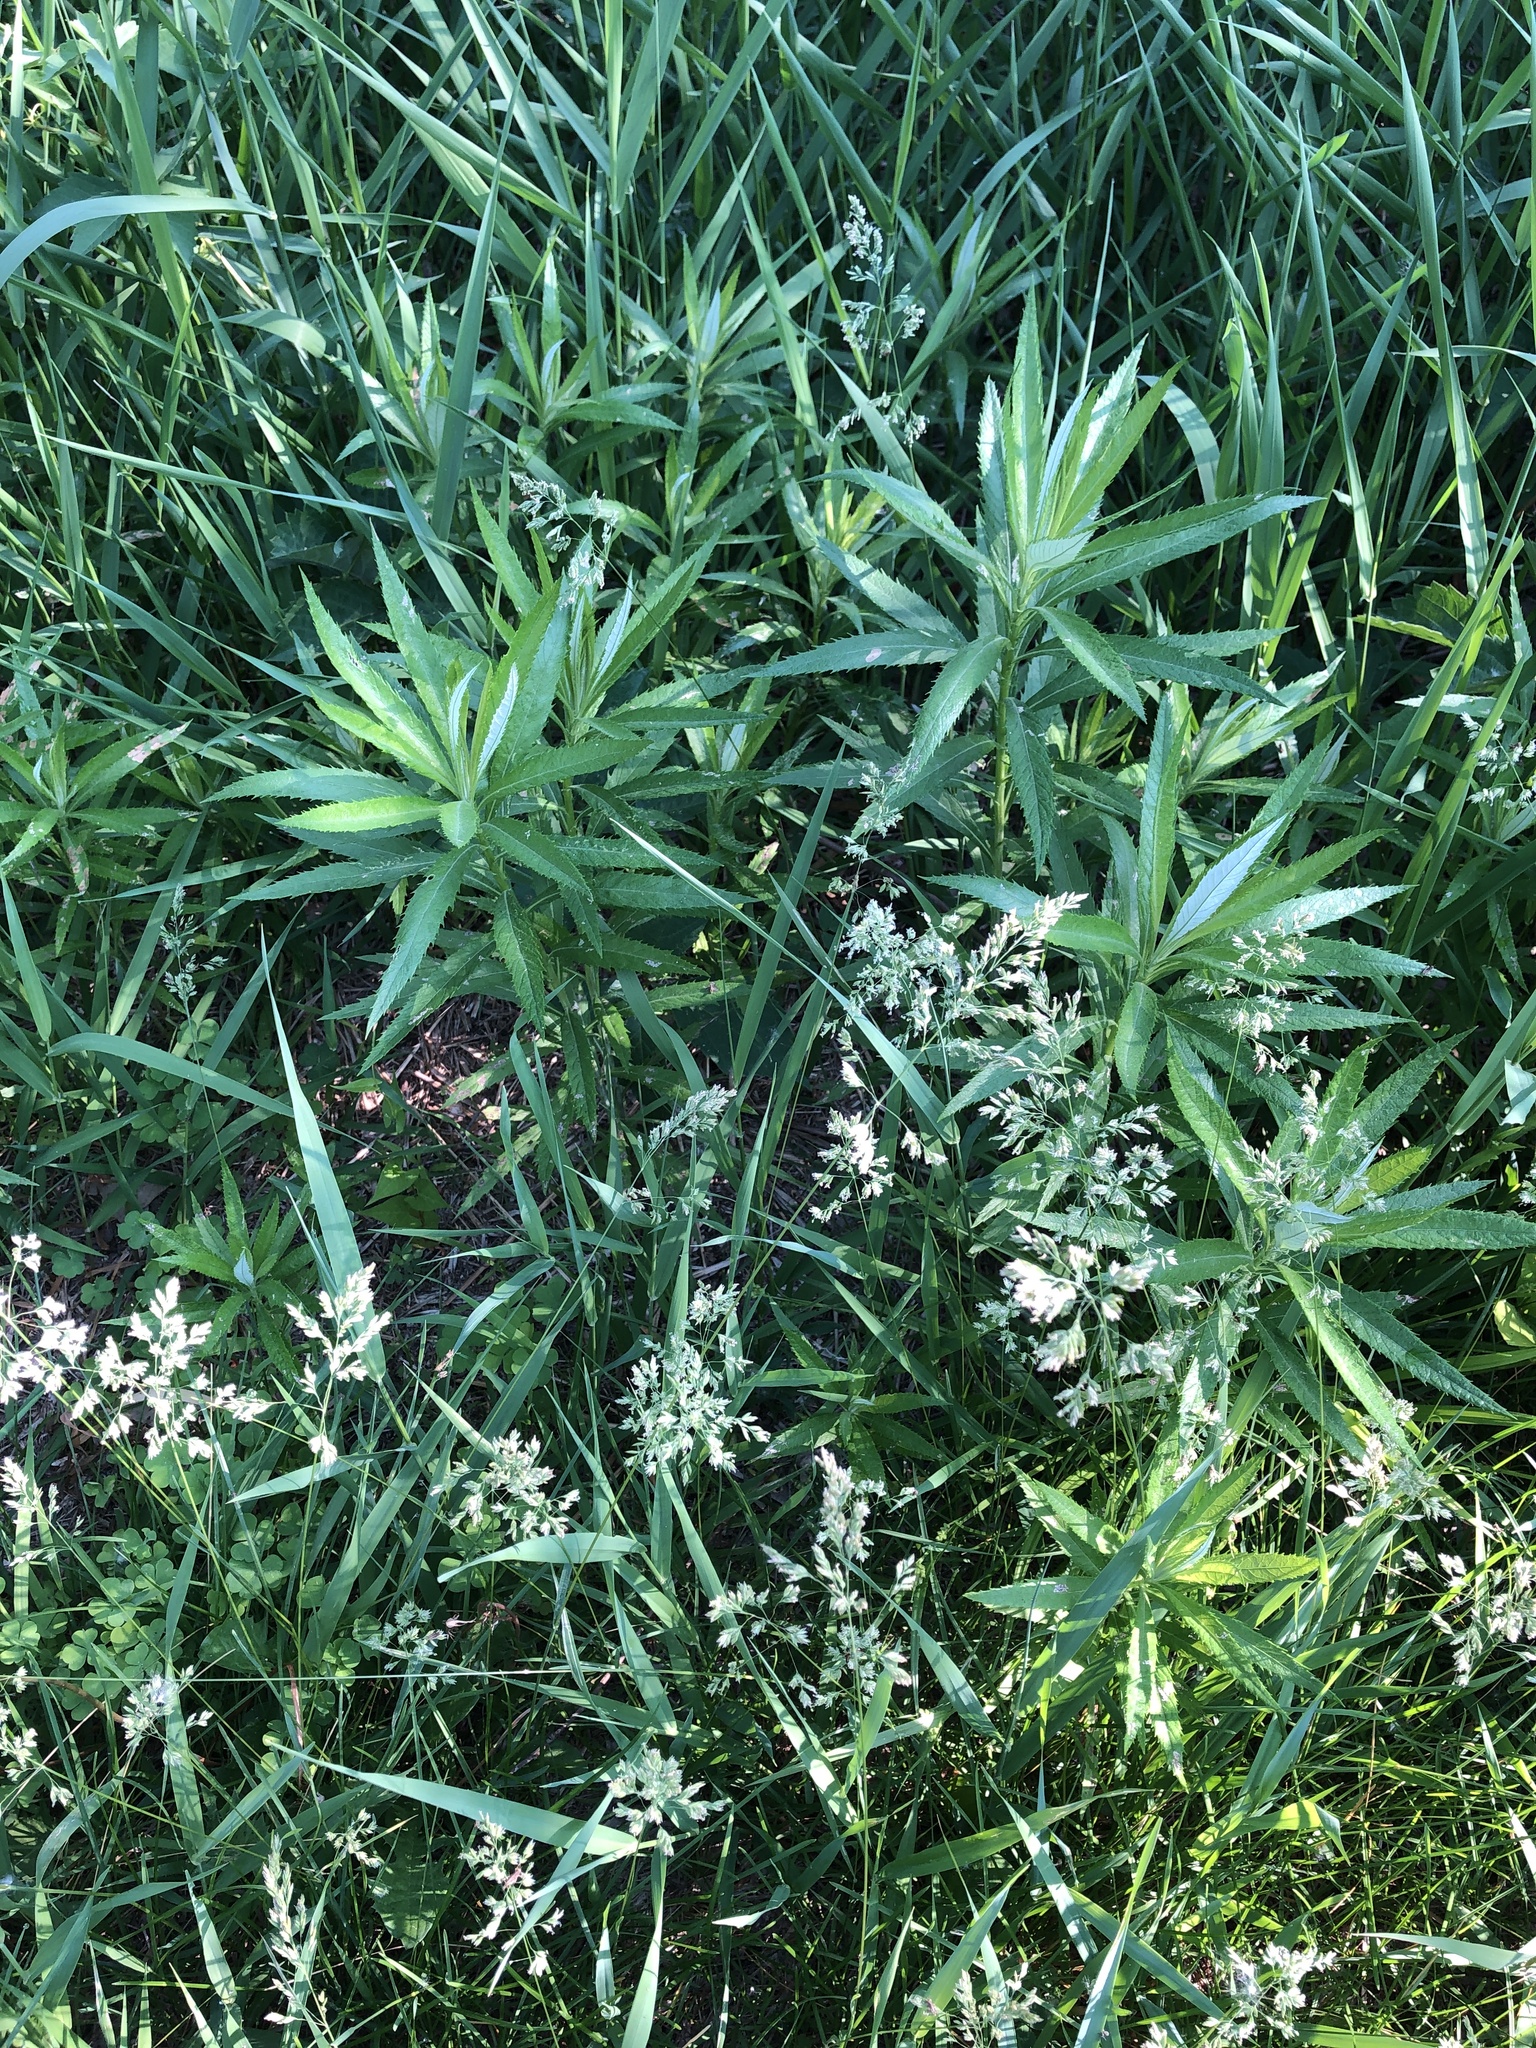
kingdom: Plantae
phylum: Tracheophyta
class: Magnoliopsida
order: Asterales
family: Asteraceae
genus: Artemisia
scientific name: Artemisia serrata
